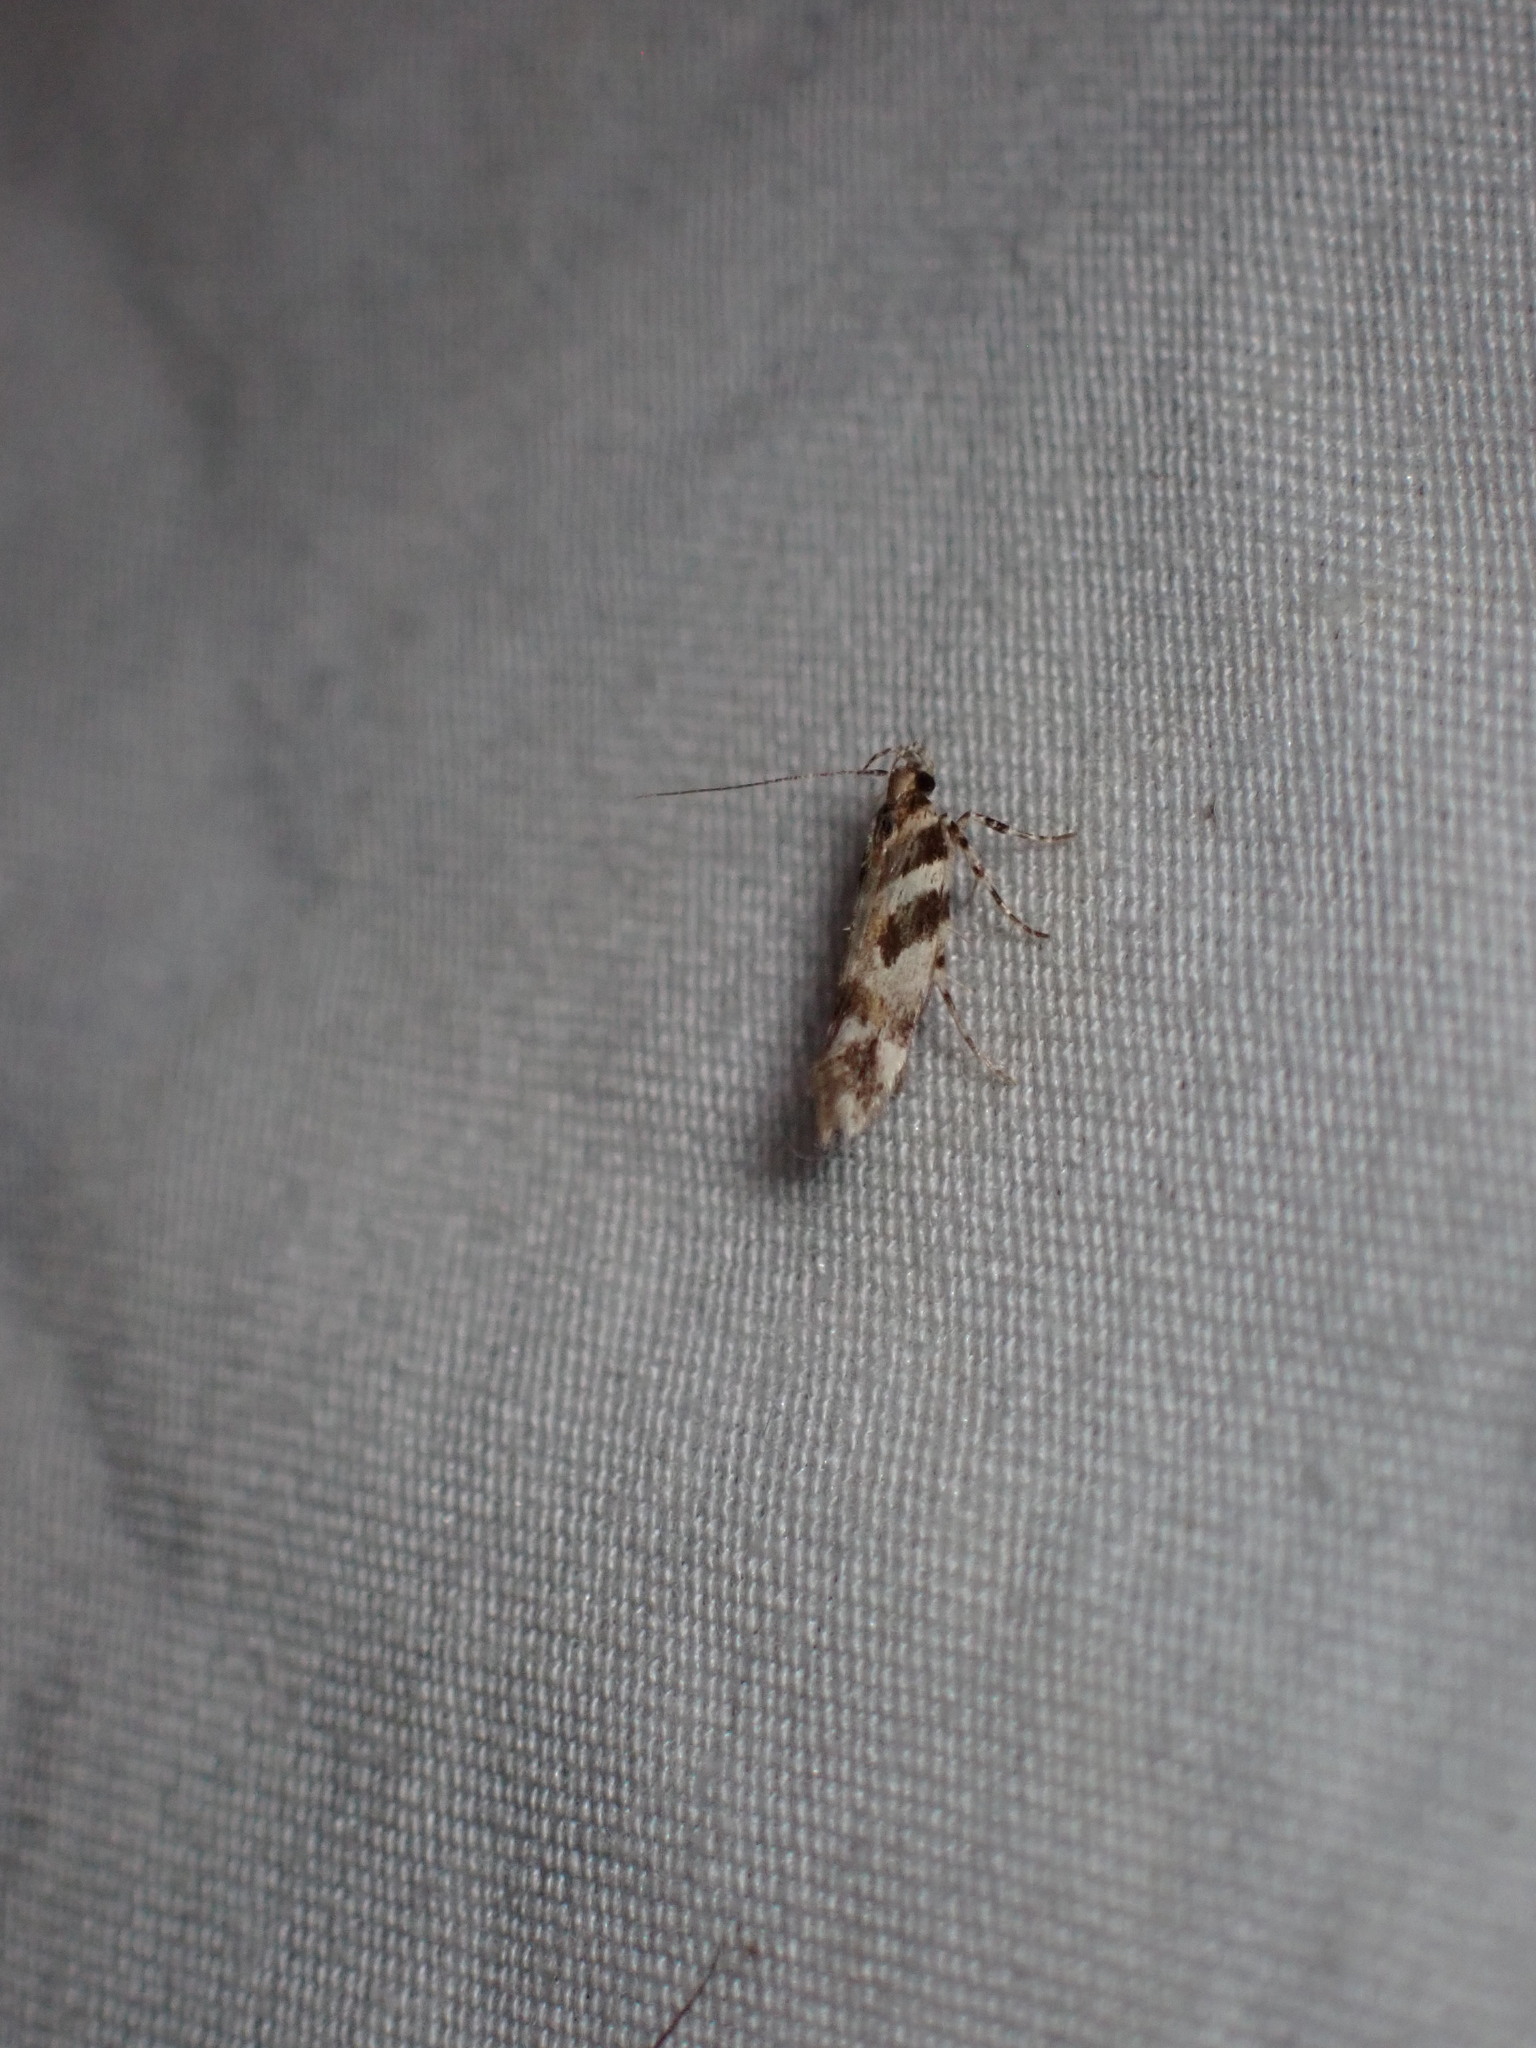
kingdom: Animalia
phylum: Arthropoda
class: Insecta
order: Lepidoptera
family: Gelechiidae
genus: Aristotelia
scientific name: Aristotelia roseosuffusella
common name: Pink-washed aristotelia moth
